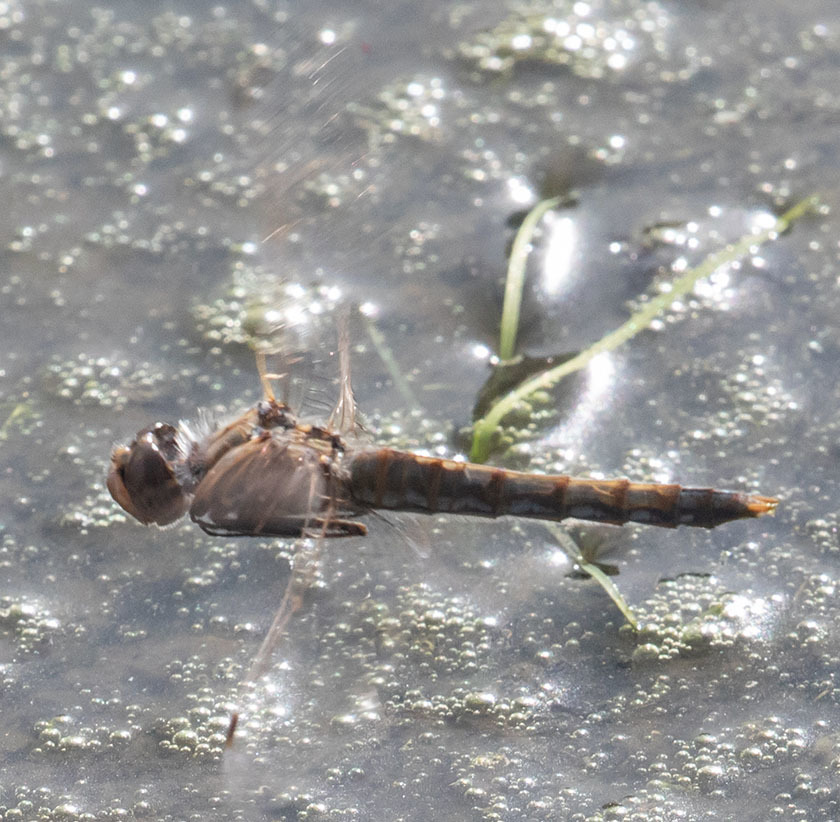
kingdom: Animalia
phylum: Arthropoda
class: Insecta
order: Odonata
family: Libellulidae
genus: Sympetrum
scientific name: Sympetrum corruptum
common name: Variegated meadowhawk
